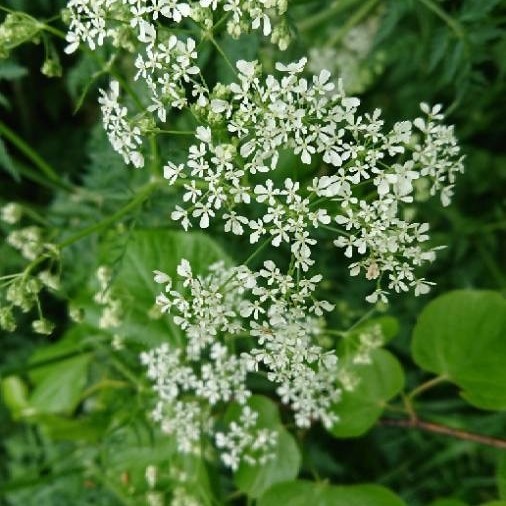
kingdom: Plantae
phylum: Tracheophyta
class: Magnoliopsida
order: Apiales
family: Apiaceae
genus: Anthriscus
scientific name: Anthriscus sylvestris
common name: Cow parsley
